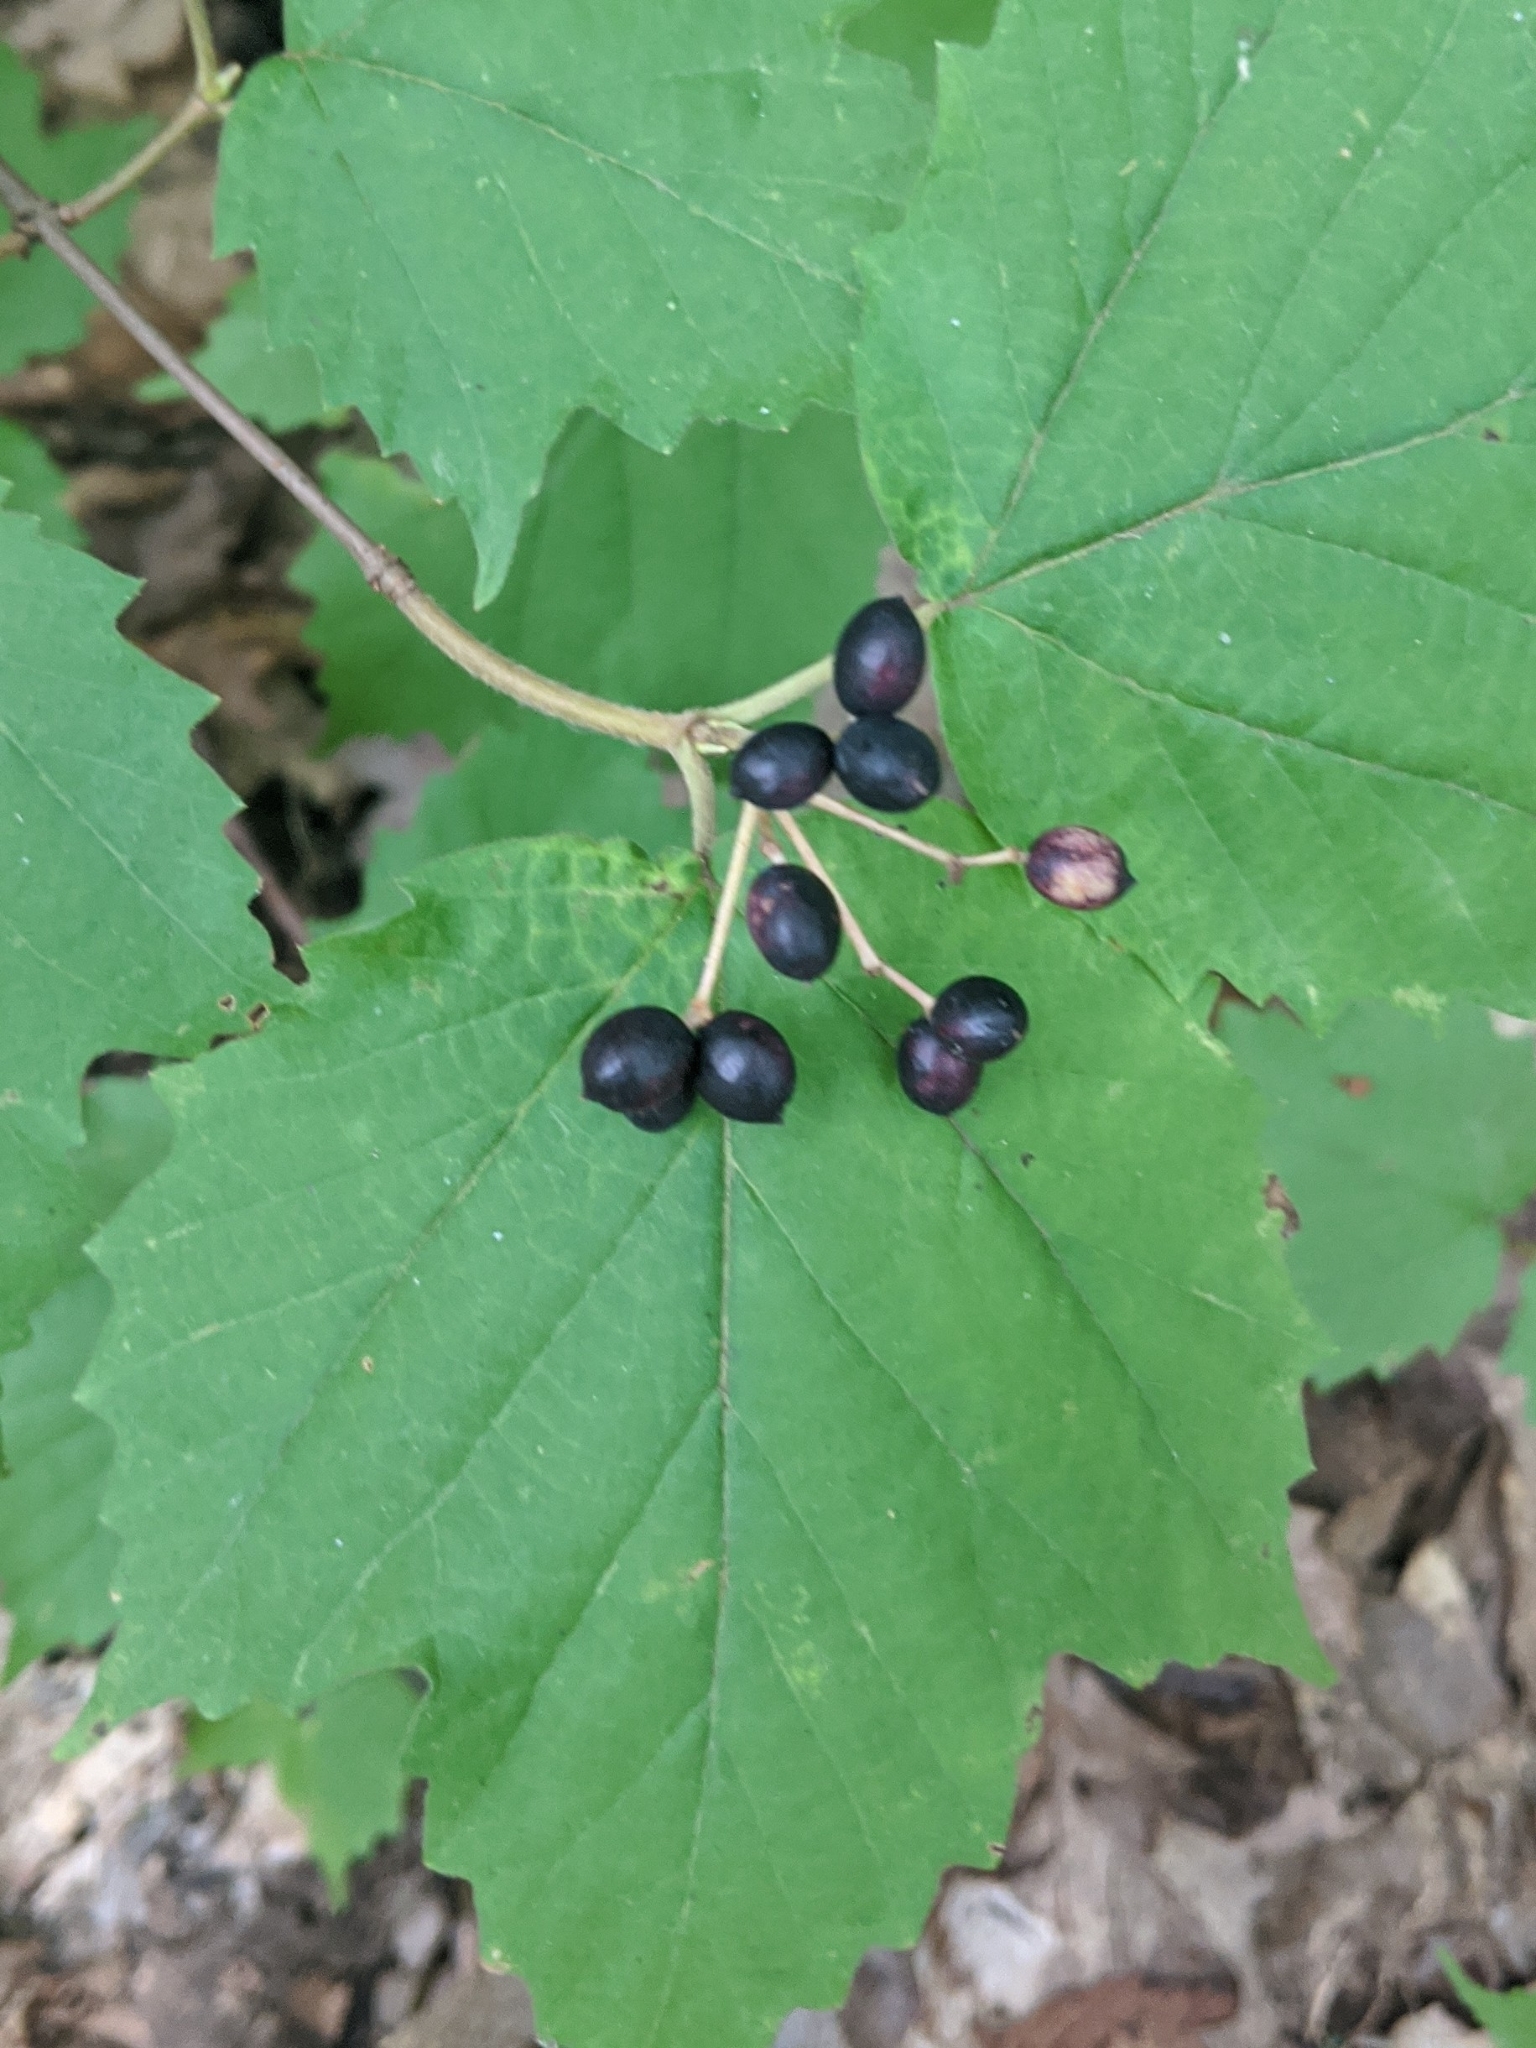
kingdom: Plantae
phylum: Tracheophyta
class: Magnoliopsida
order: Dipsacales
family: Viburnaceae
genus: Viburnum
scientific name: Viburnum acerifolium
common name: Dockmackie
